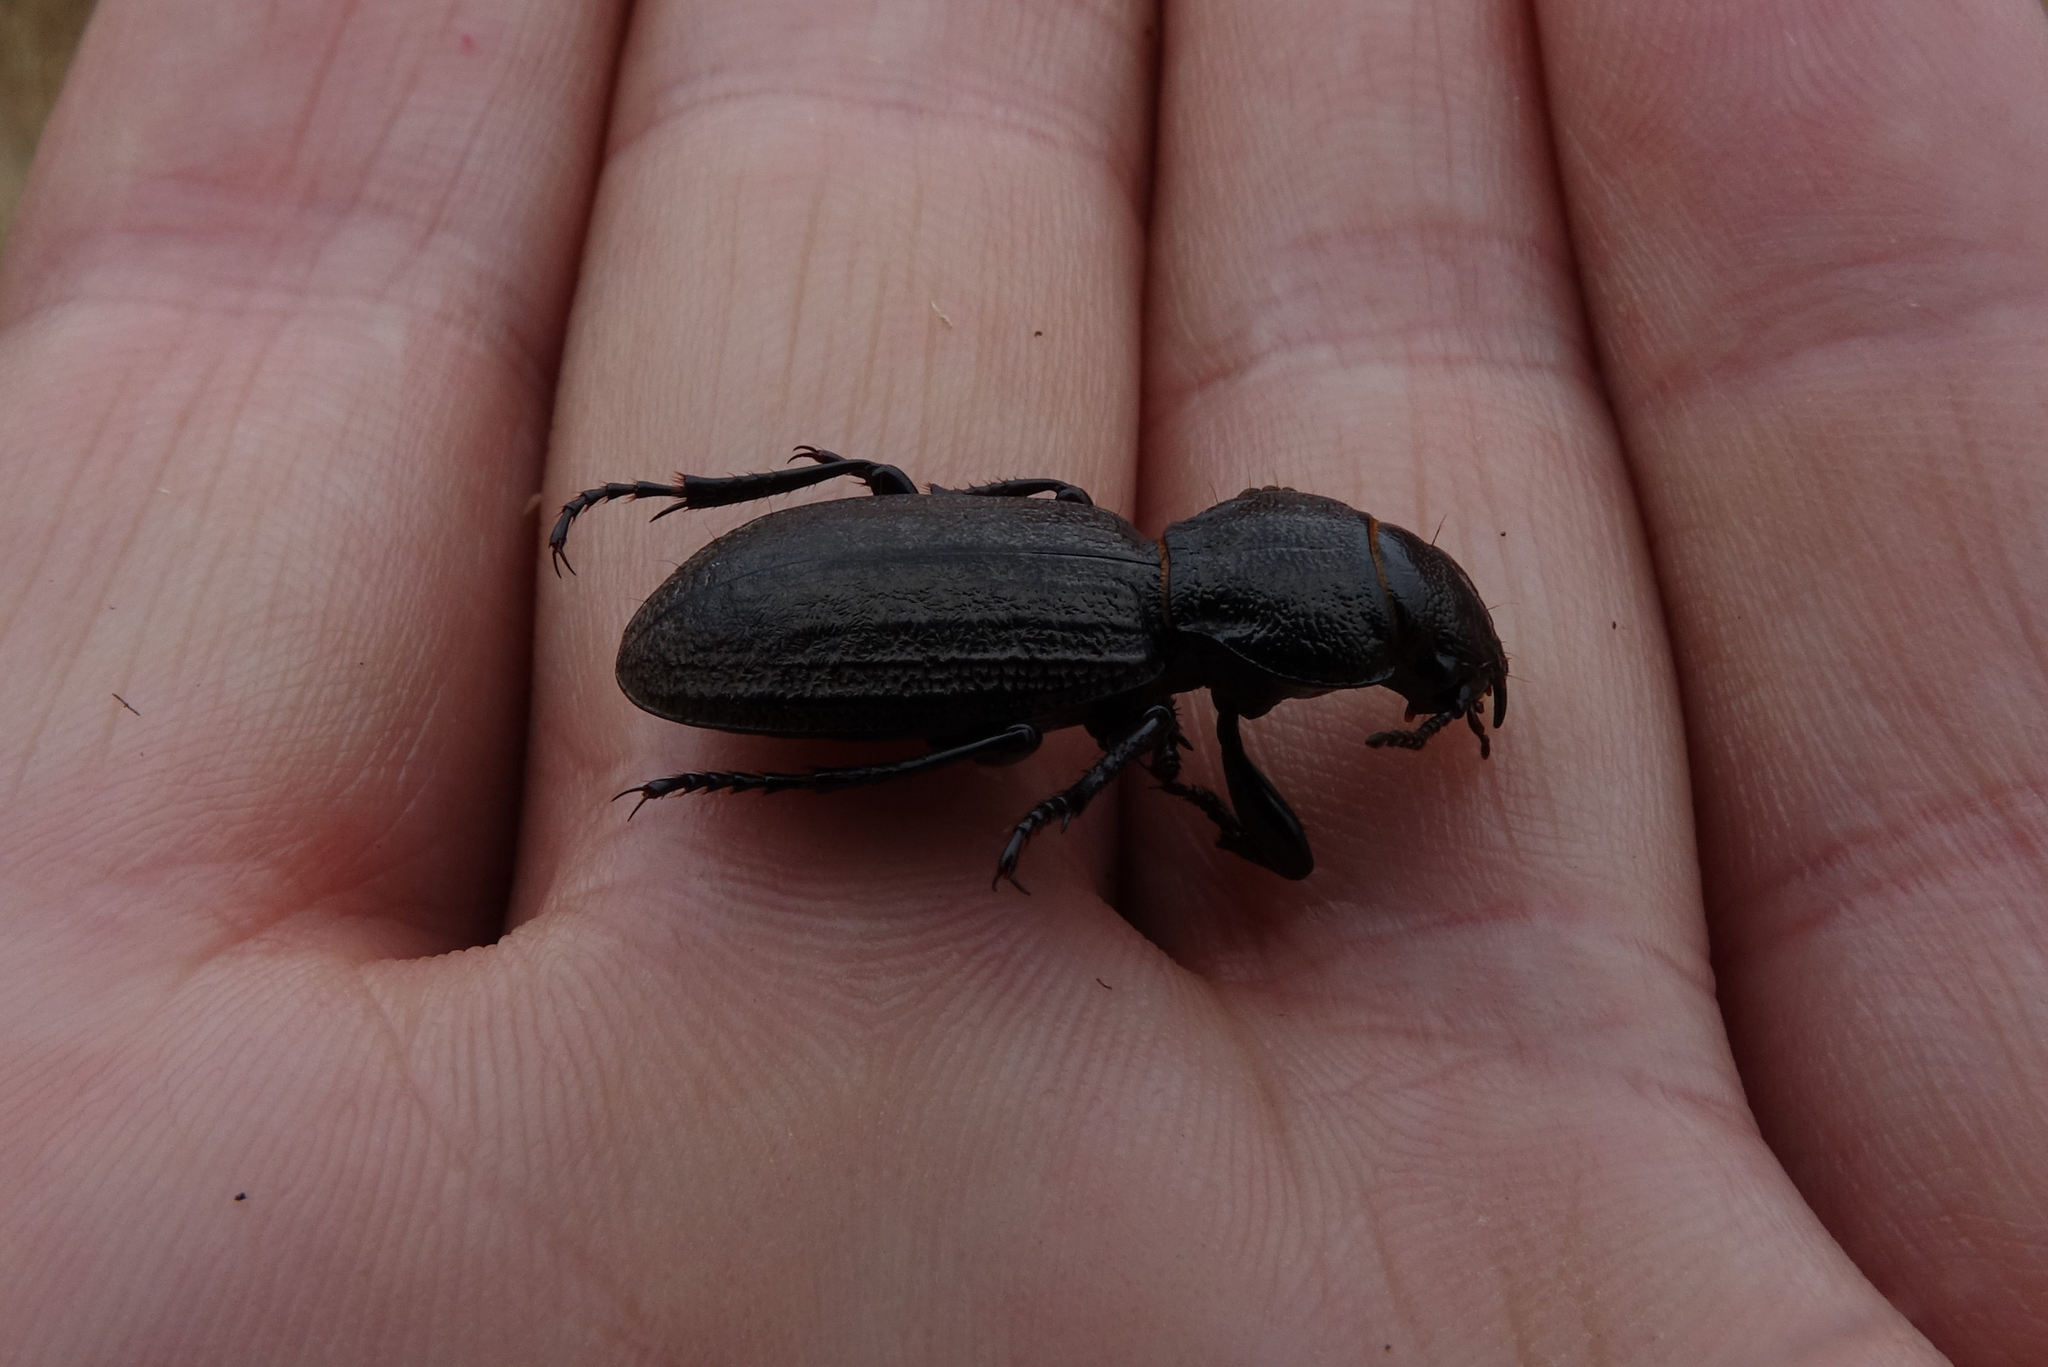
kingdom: Animalia
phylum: Arthropoda
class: Insecta
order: Coleoptera
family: Carabidae
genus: Mecodema
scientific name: Mecodema sculpturatum
